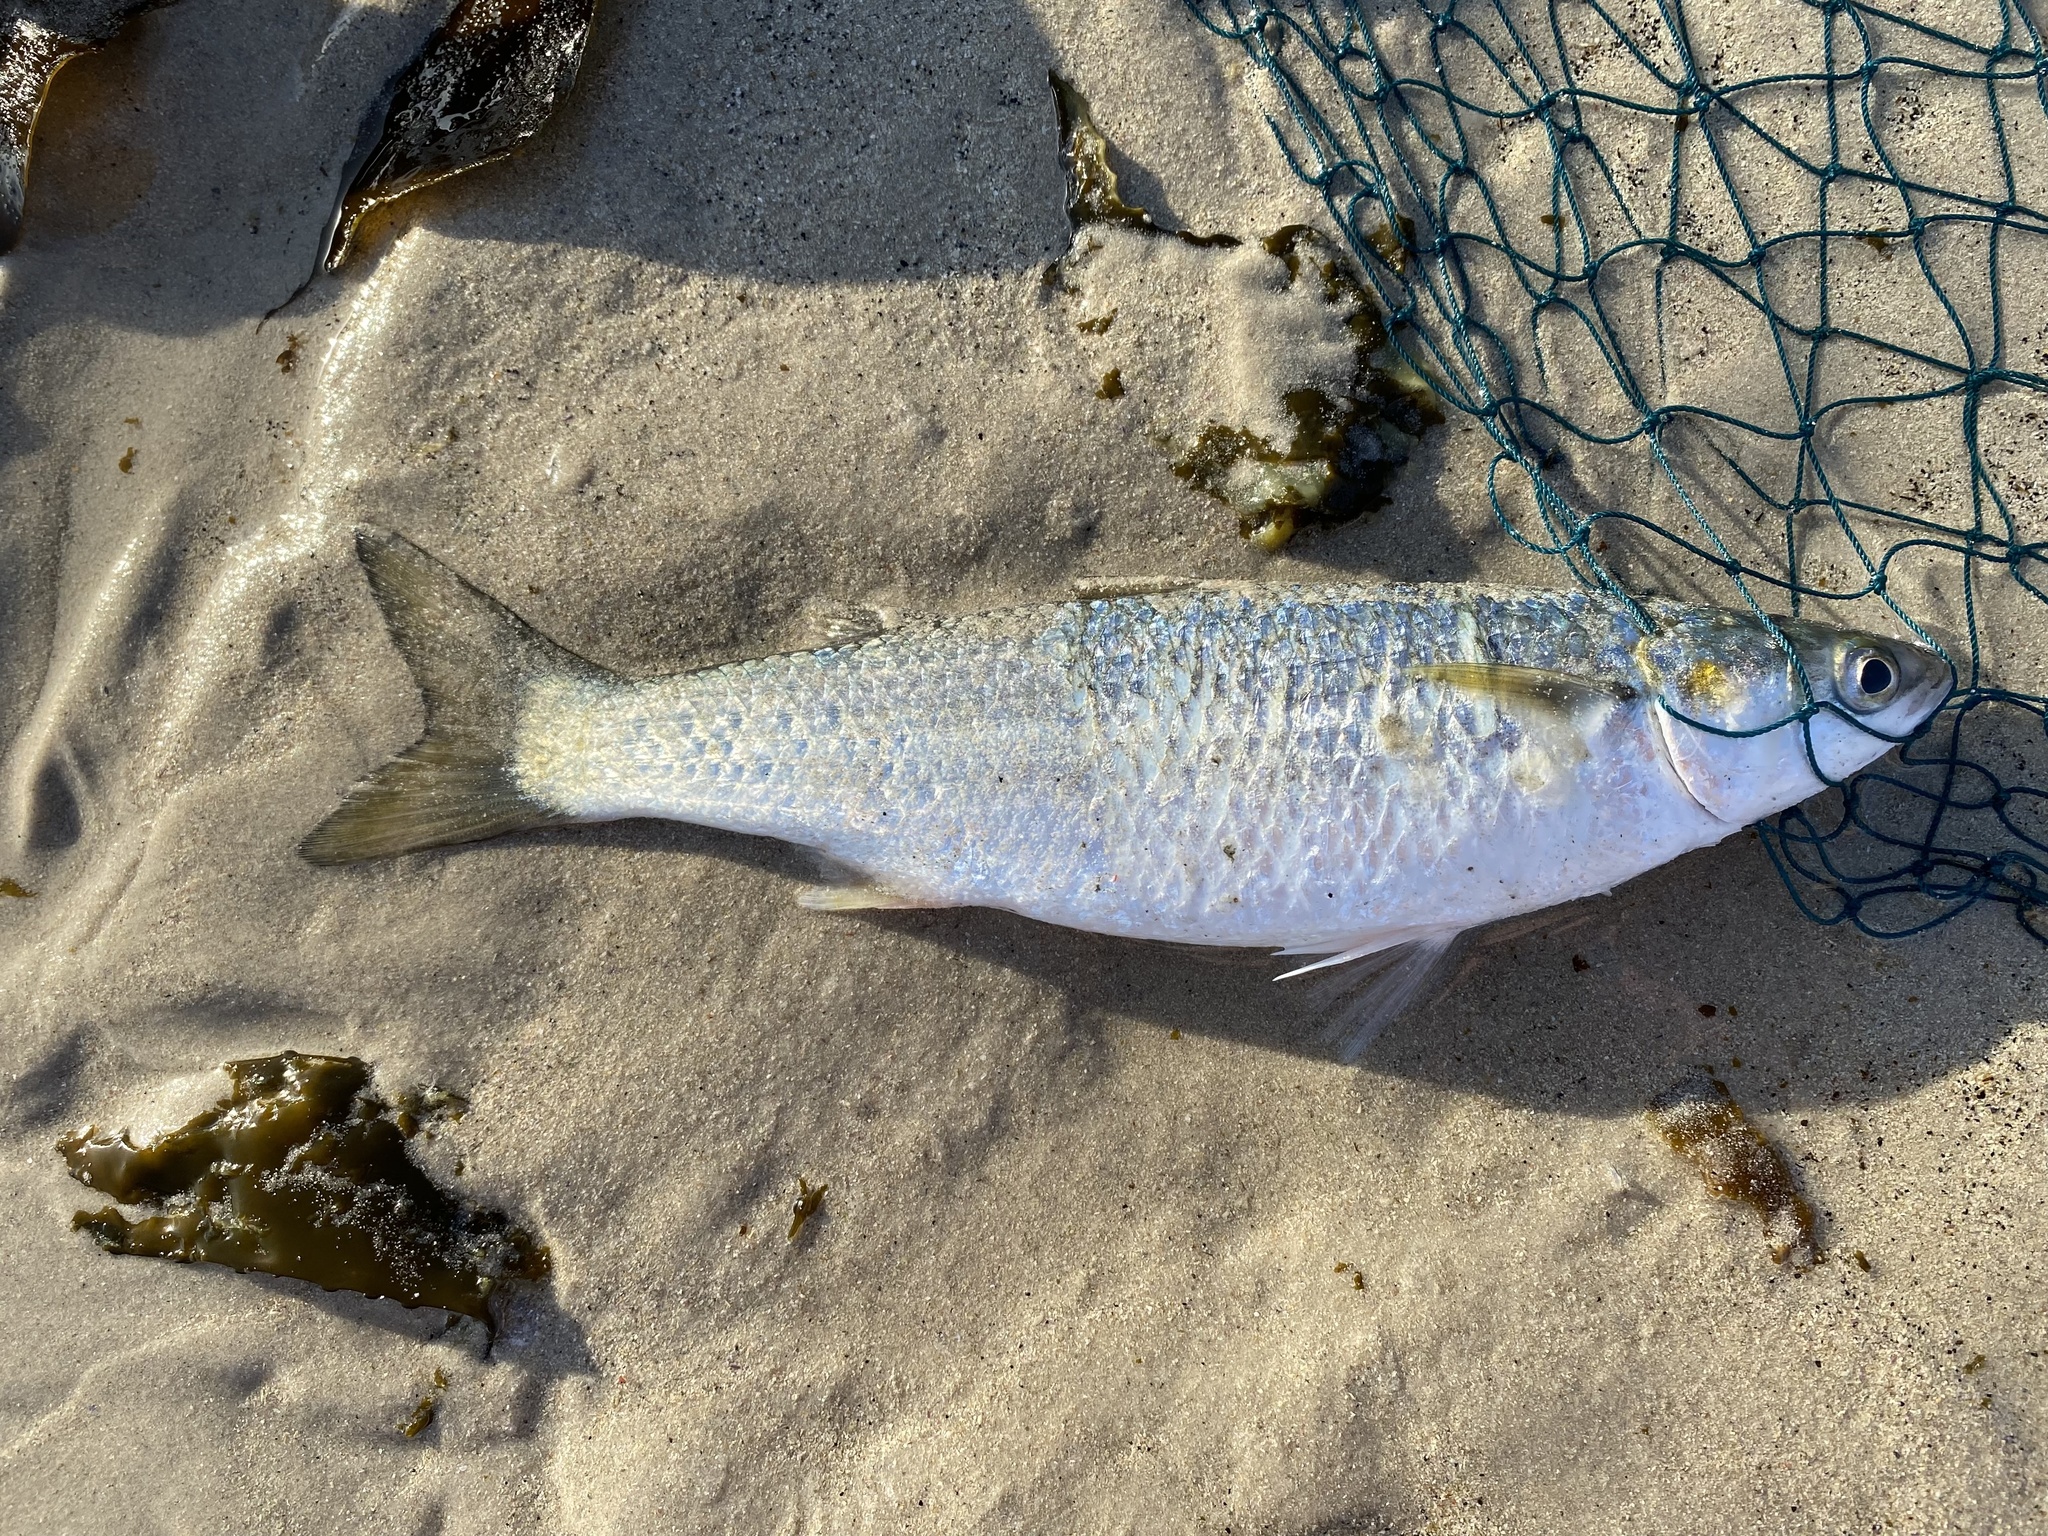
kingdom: Animalia
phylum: Chordata
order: Mugiliformes
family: Mugilidae
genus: Chelon
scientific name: Chelon richardsonii
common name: South african mullet
